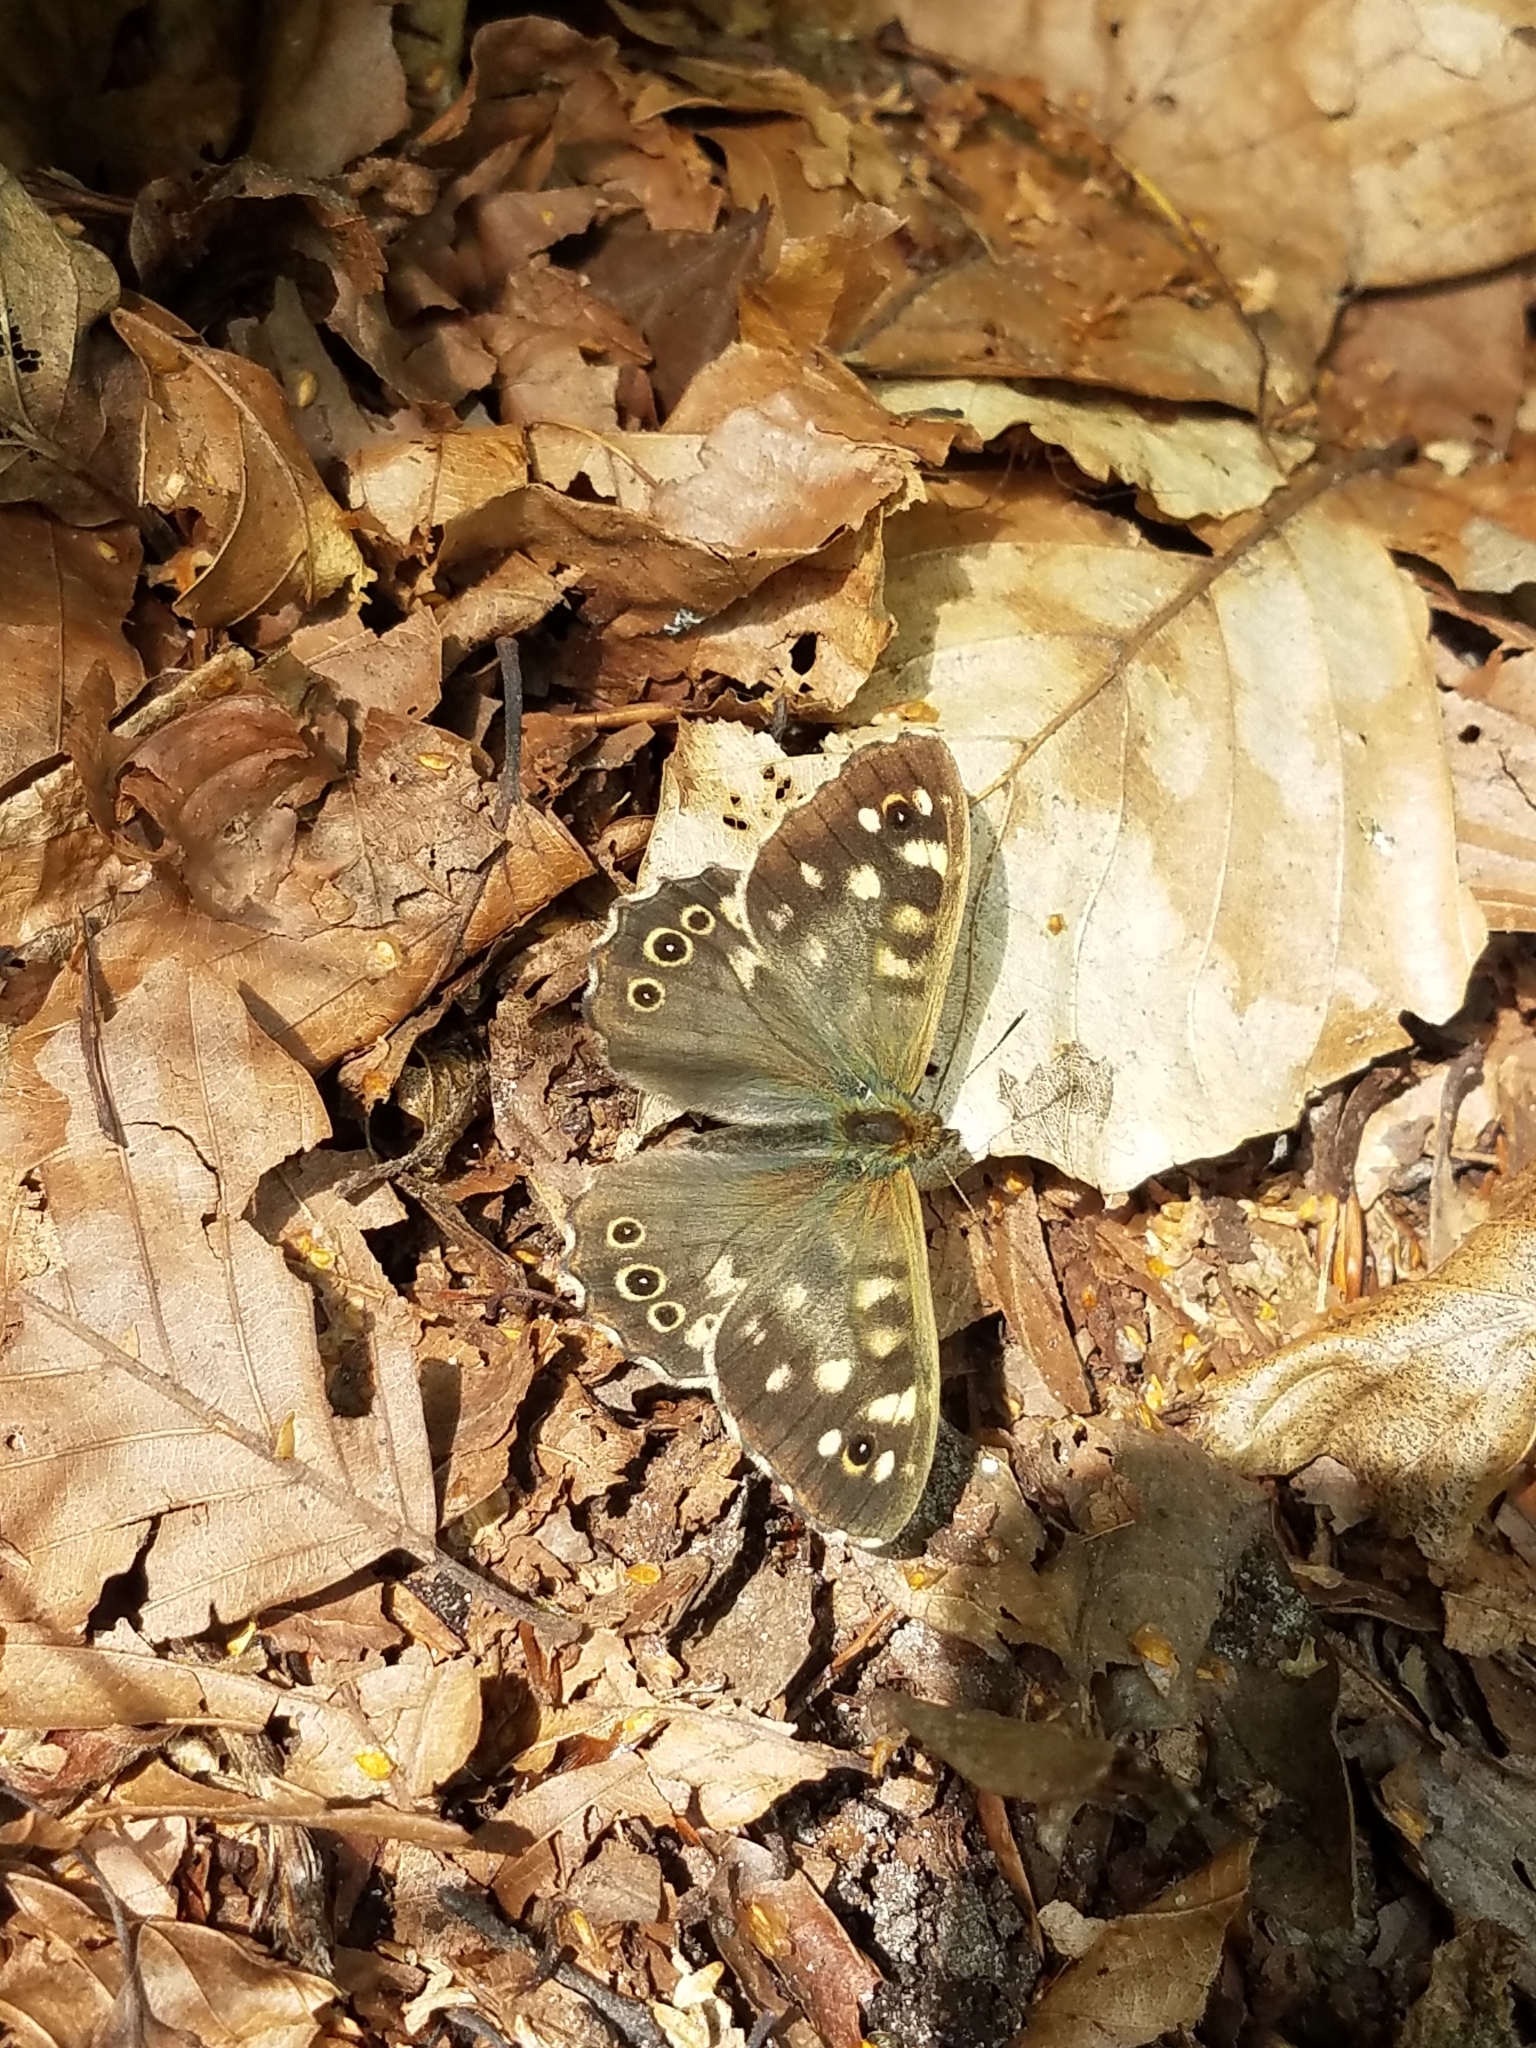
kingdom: Animalia
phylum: Arthropoda
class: Insecta
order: Lepidoptera
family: Nymphalidae
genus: Pararge
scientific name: Pararge aegeria
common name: Speckled wood
